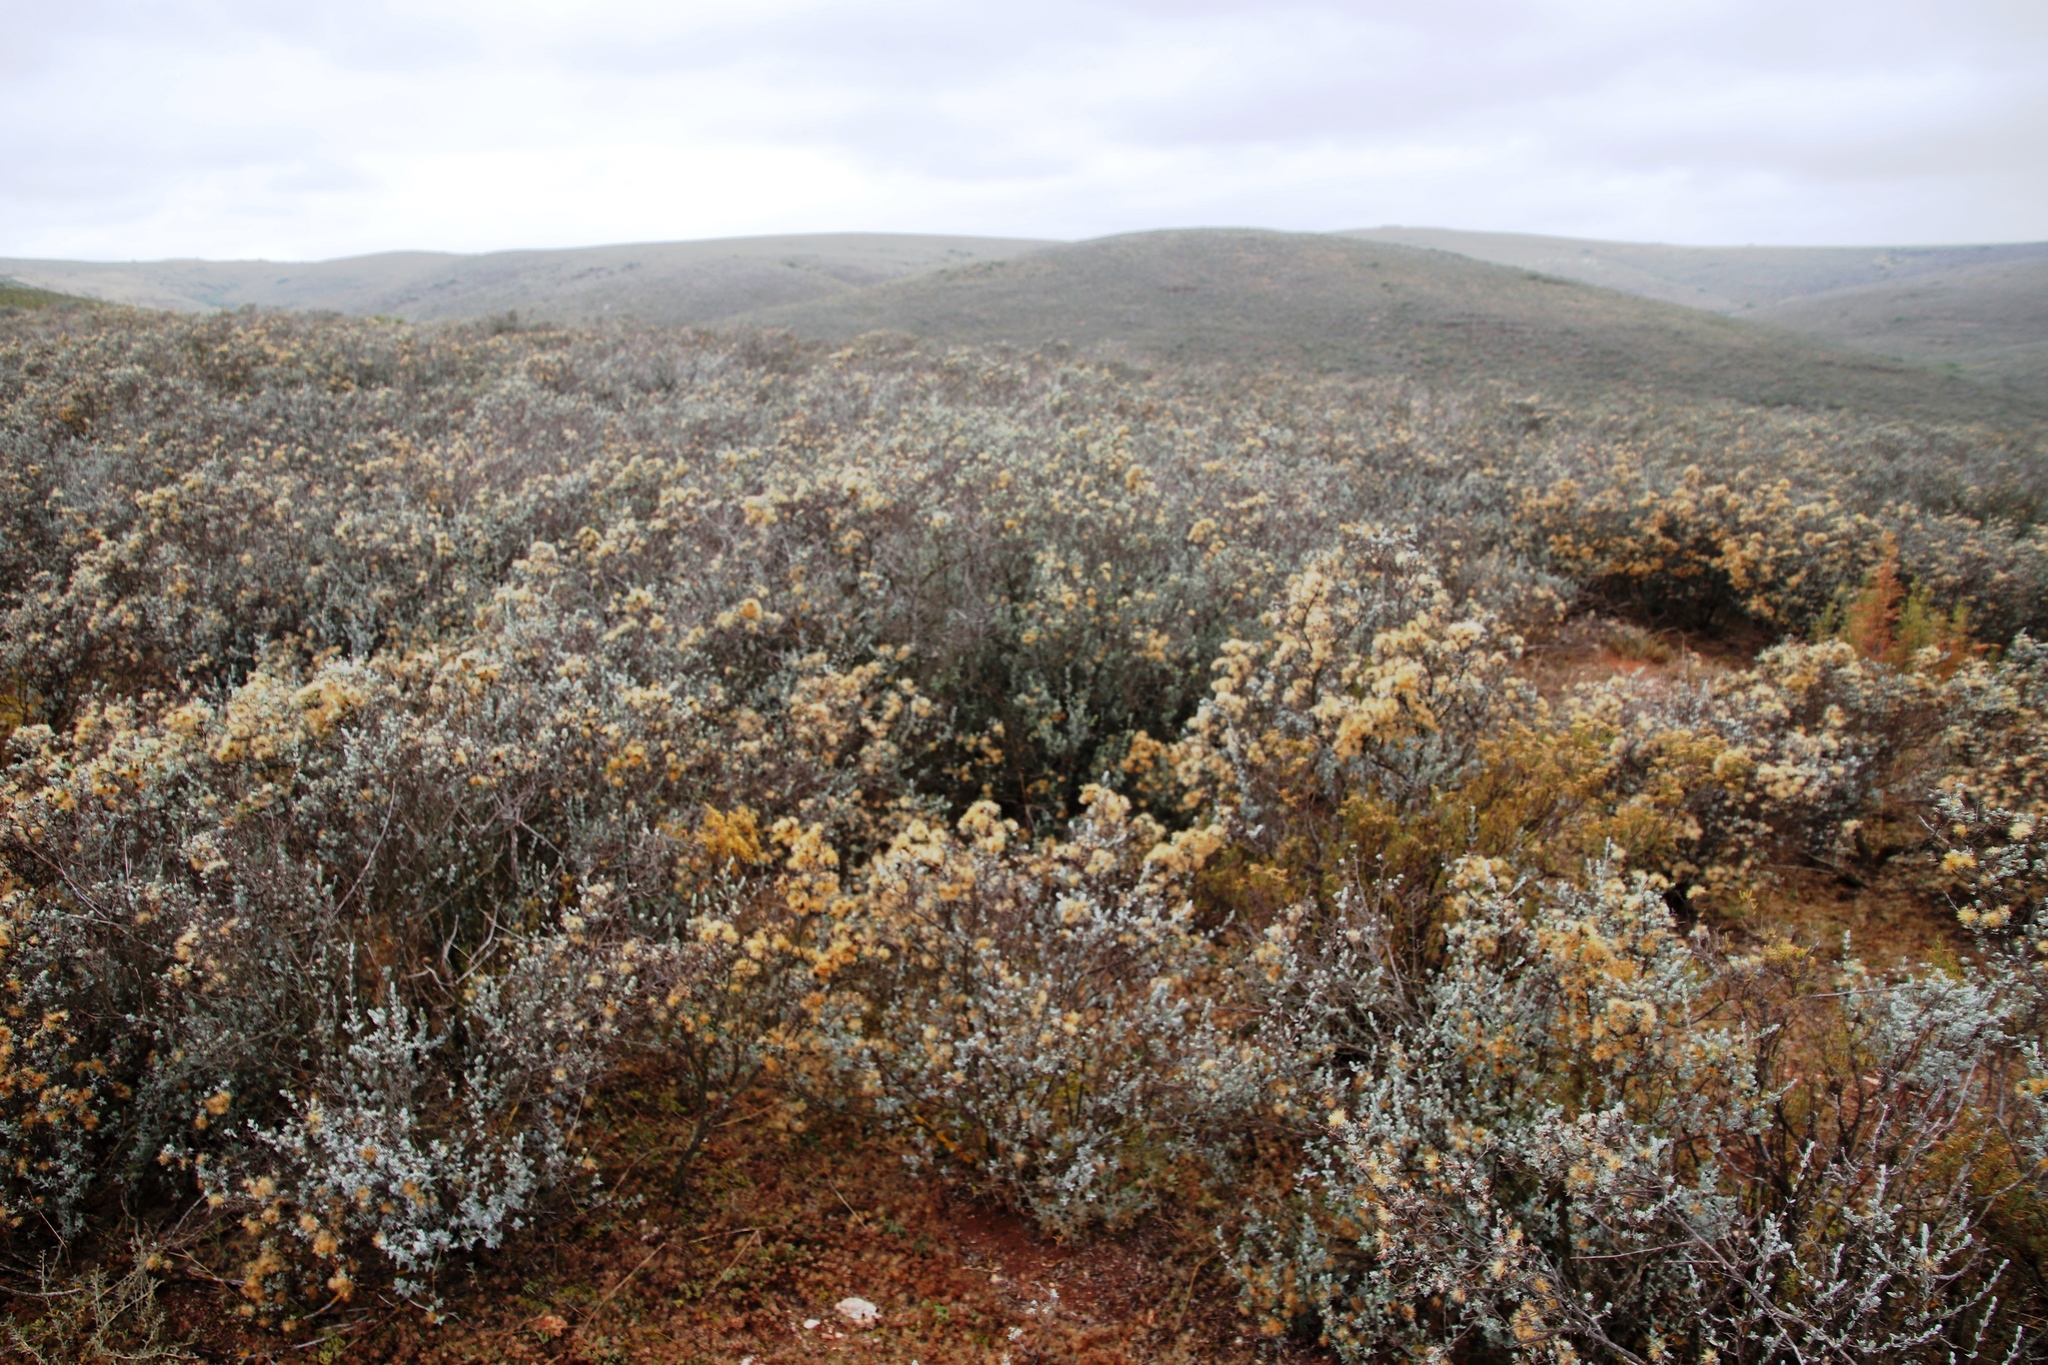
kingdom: Plantae
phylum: Tracheophyta
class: Magnoliopsida
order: Asterales
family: Asteraceae
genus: Pteronia
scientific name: Pteronia incana
